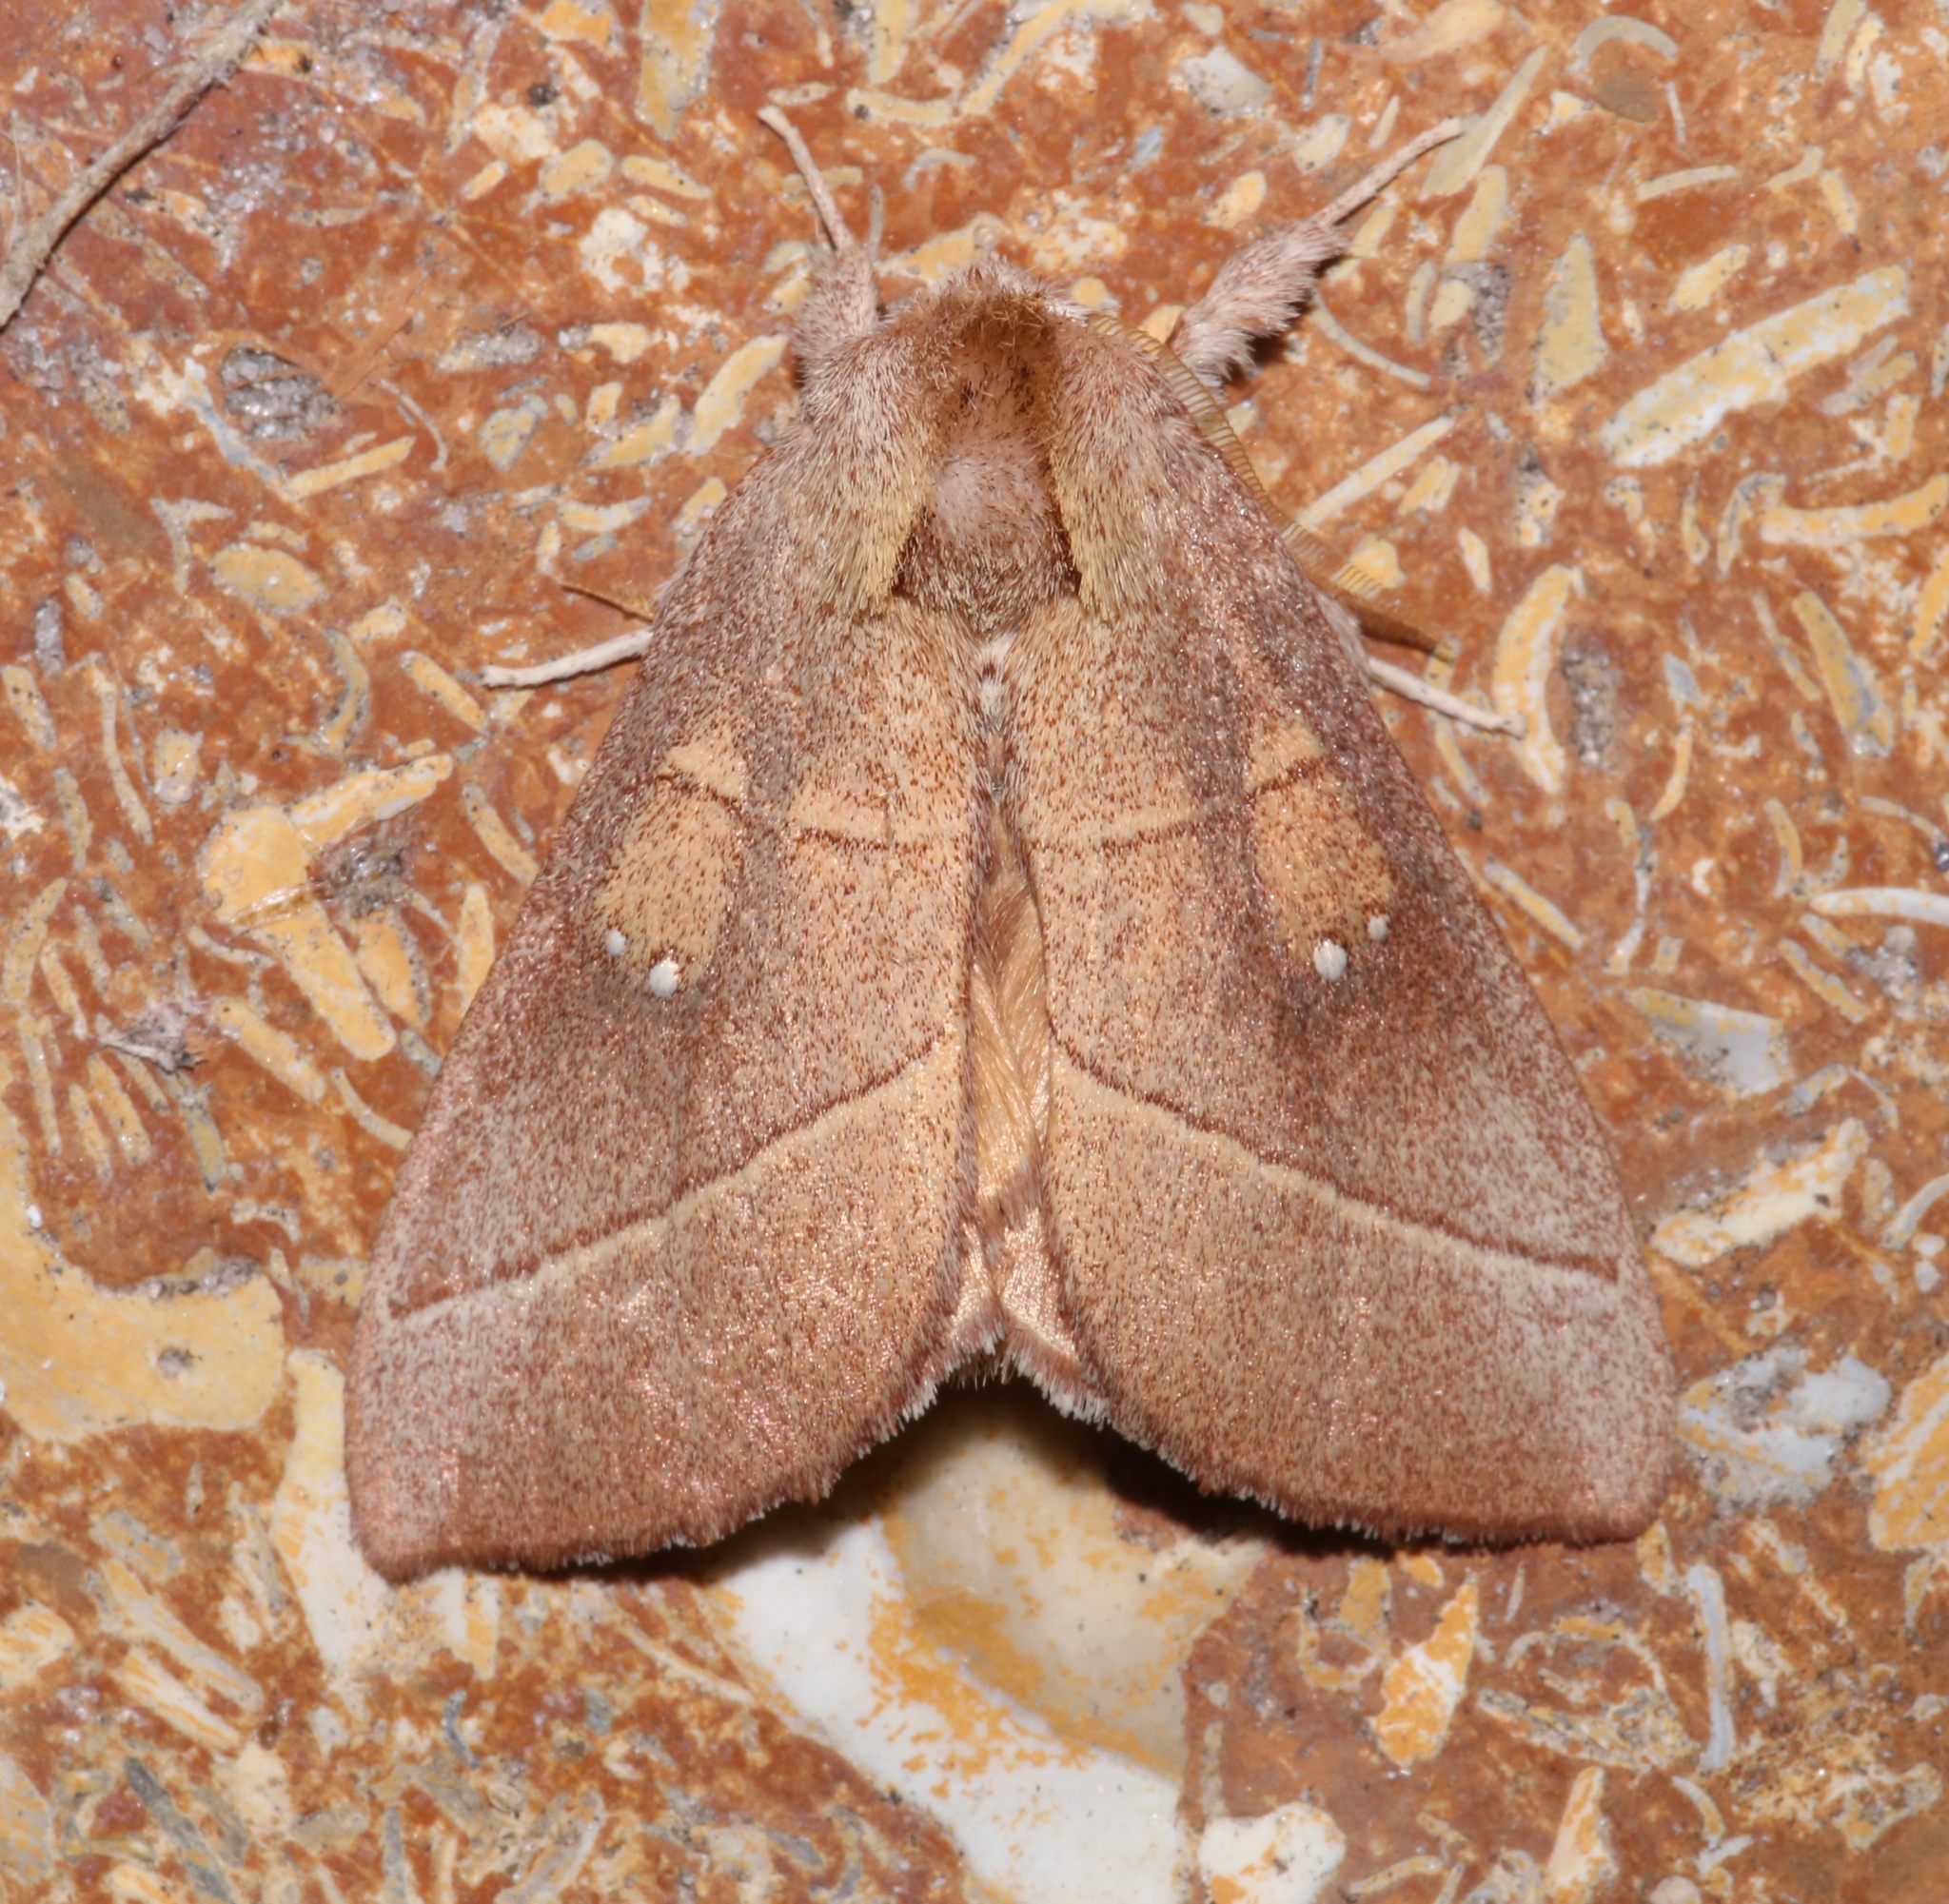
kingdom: Animalia
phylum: Arthropoda
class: Insecta
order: Lepidoptera
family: Notodontidae
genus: Nadata
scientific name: Nadata gibbosa
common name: White-dotted prominent
